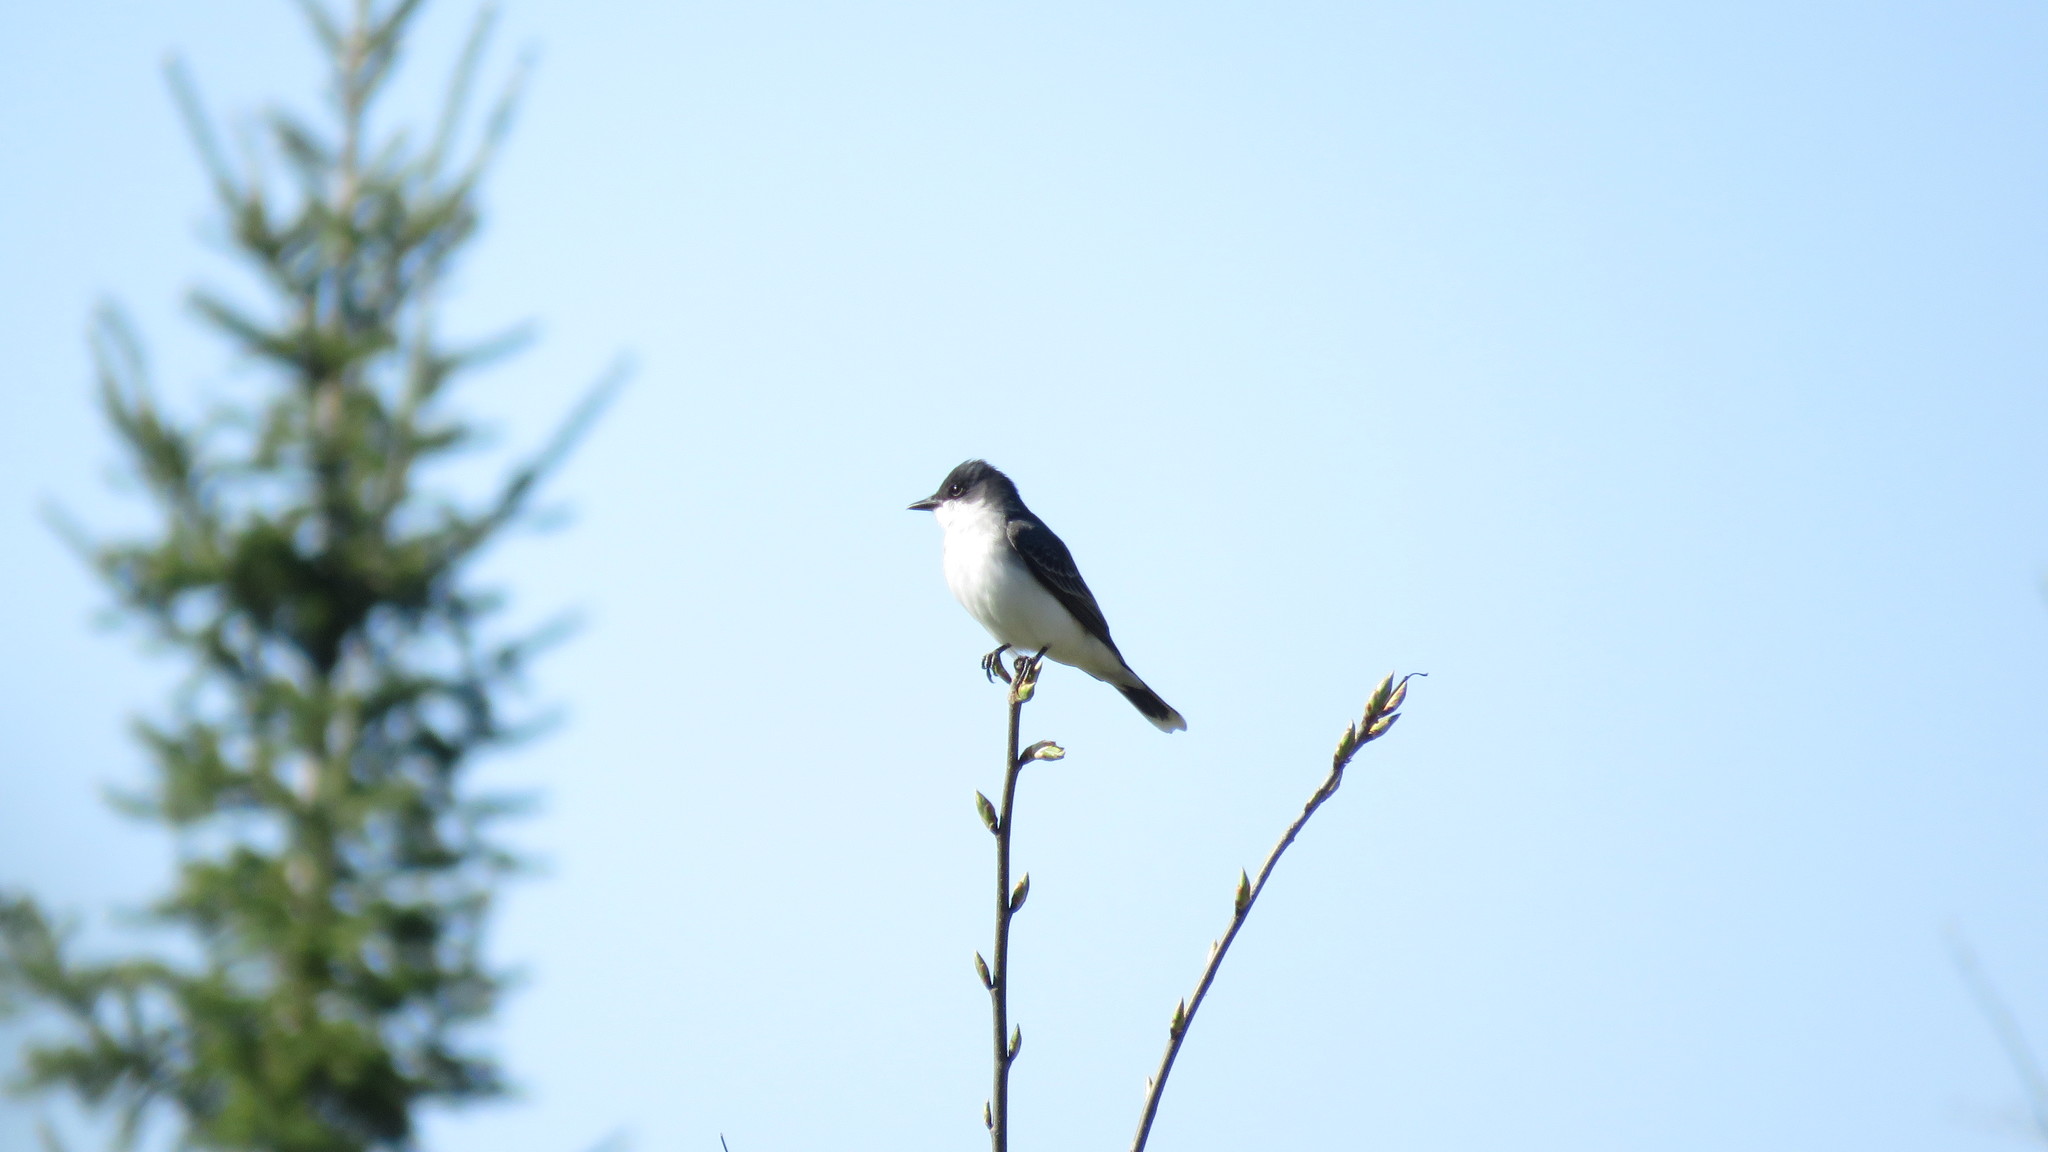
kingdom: Animalia
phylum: Chordata
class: Aves
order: Passeriformes
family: Tyrannidae
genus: Tyrannus
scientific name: Tyrannus tyrannus
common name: Eastern kingbird
